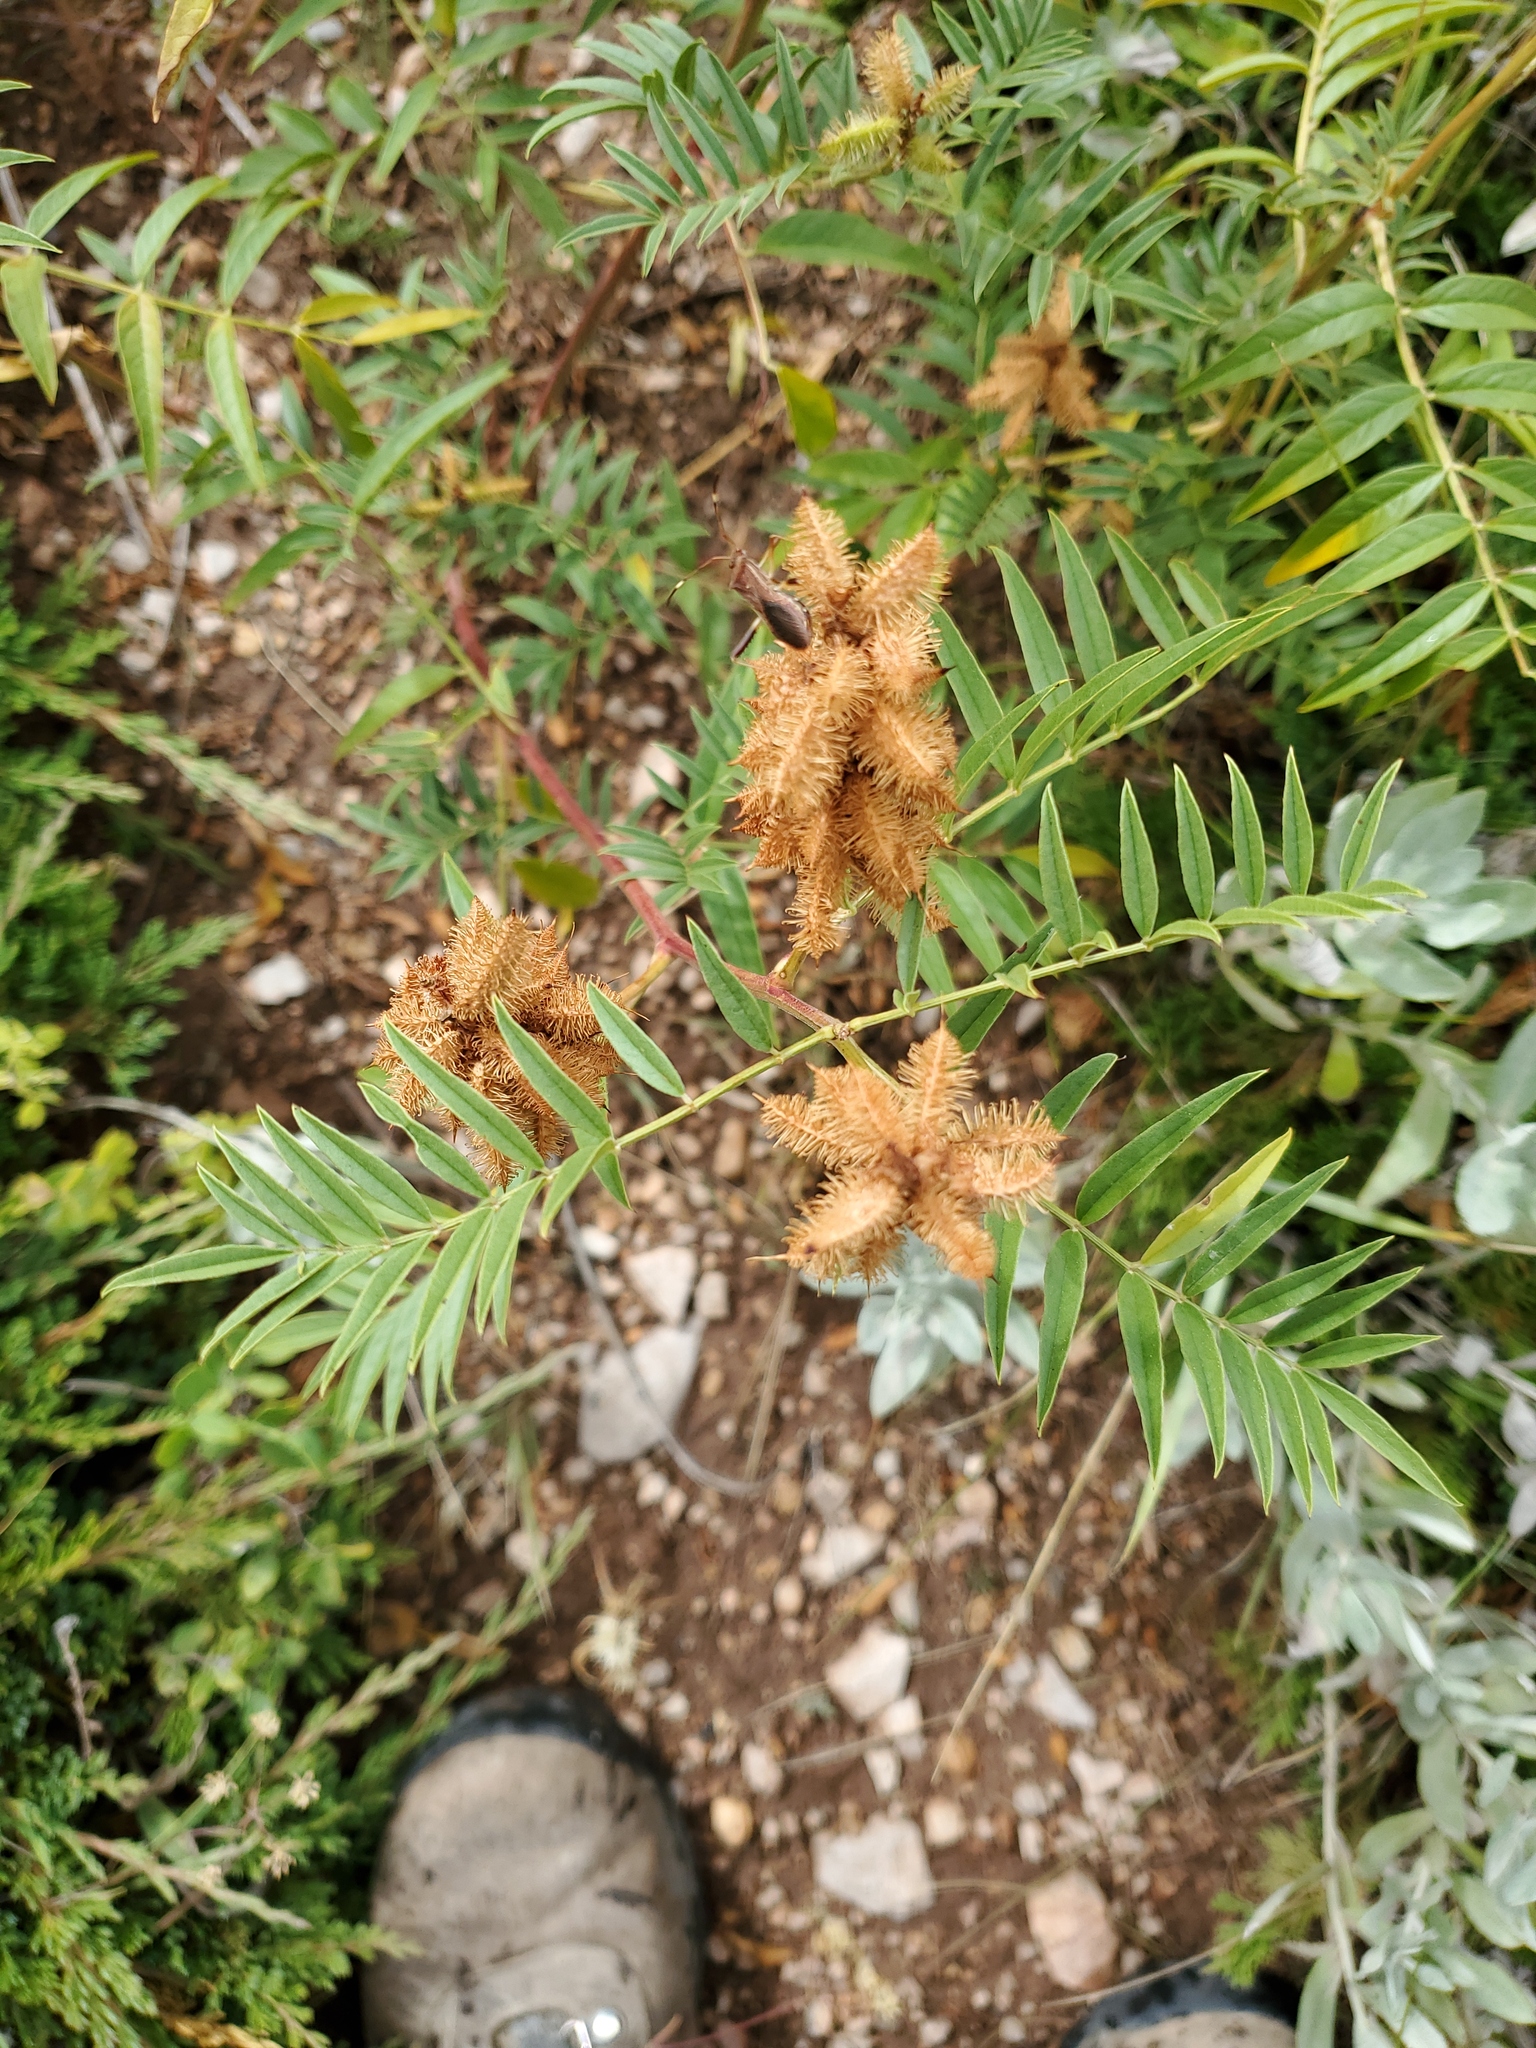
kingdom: Plantae
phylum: Tracheophyta
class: Magnoliopsida
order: Fabales
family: Fabaceae
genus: Glycyrrhiza
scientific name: Glycyrrhiza lepidota
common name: American liquorice
